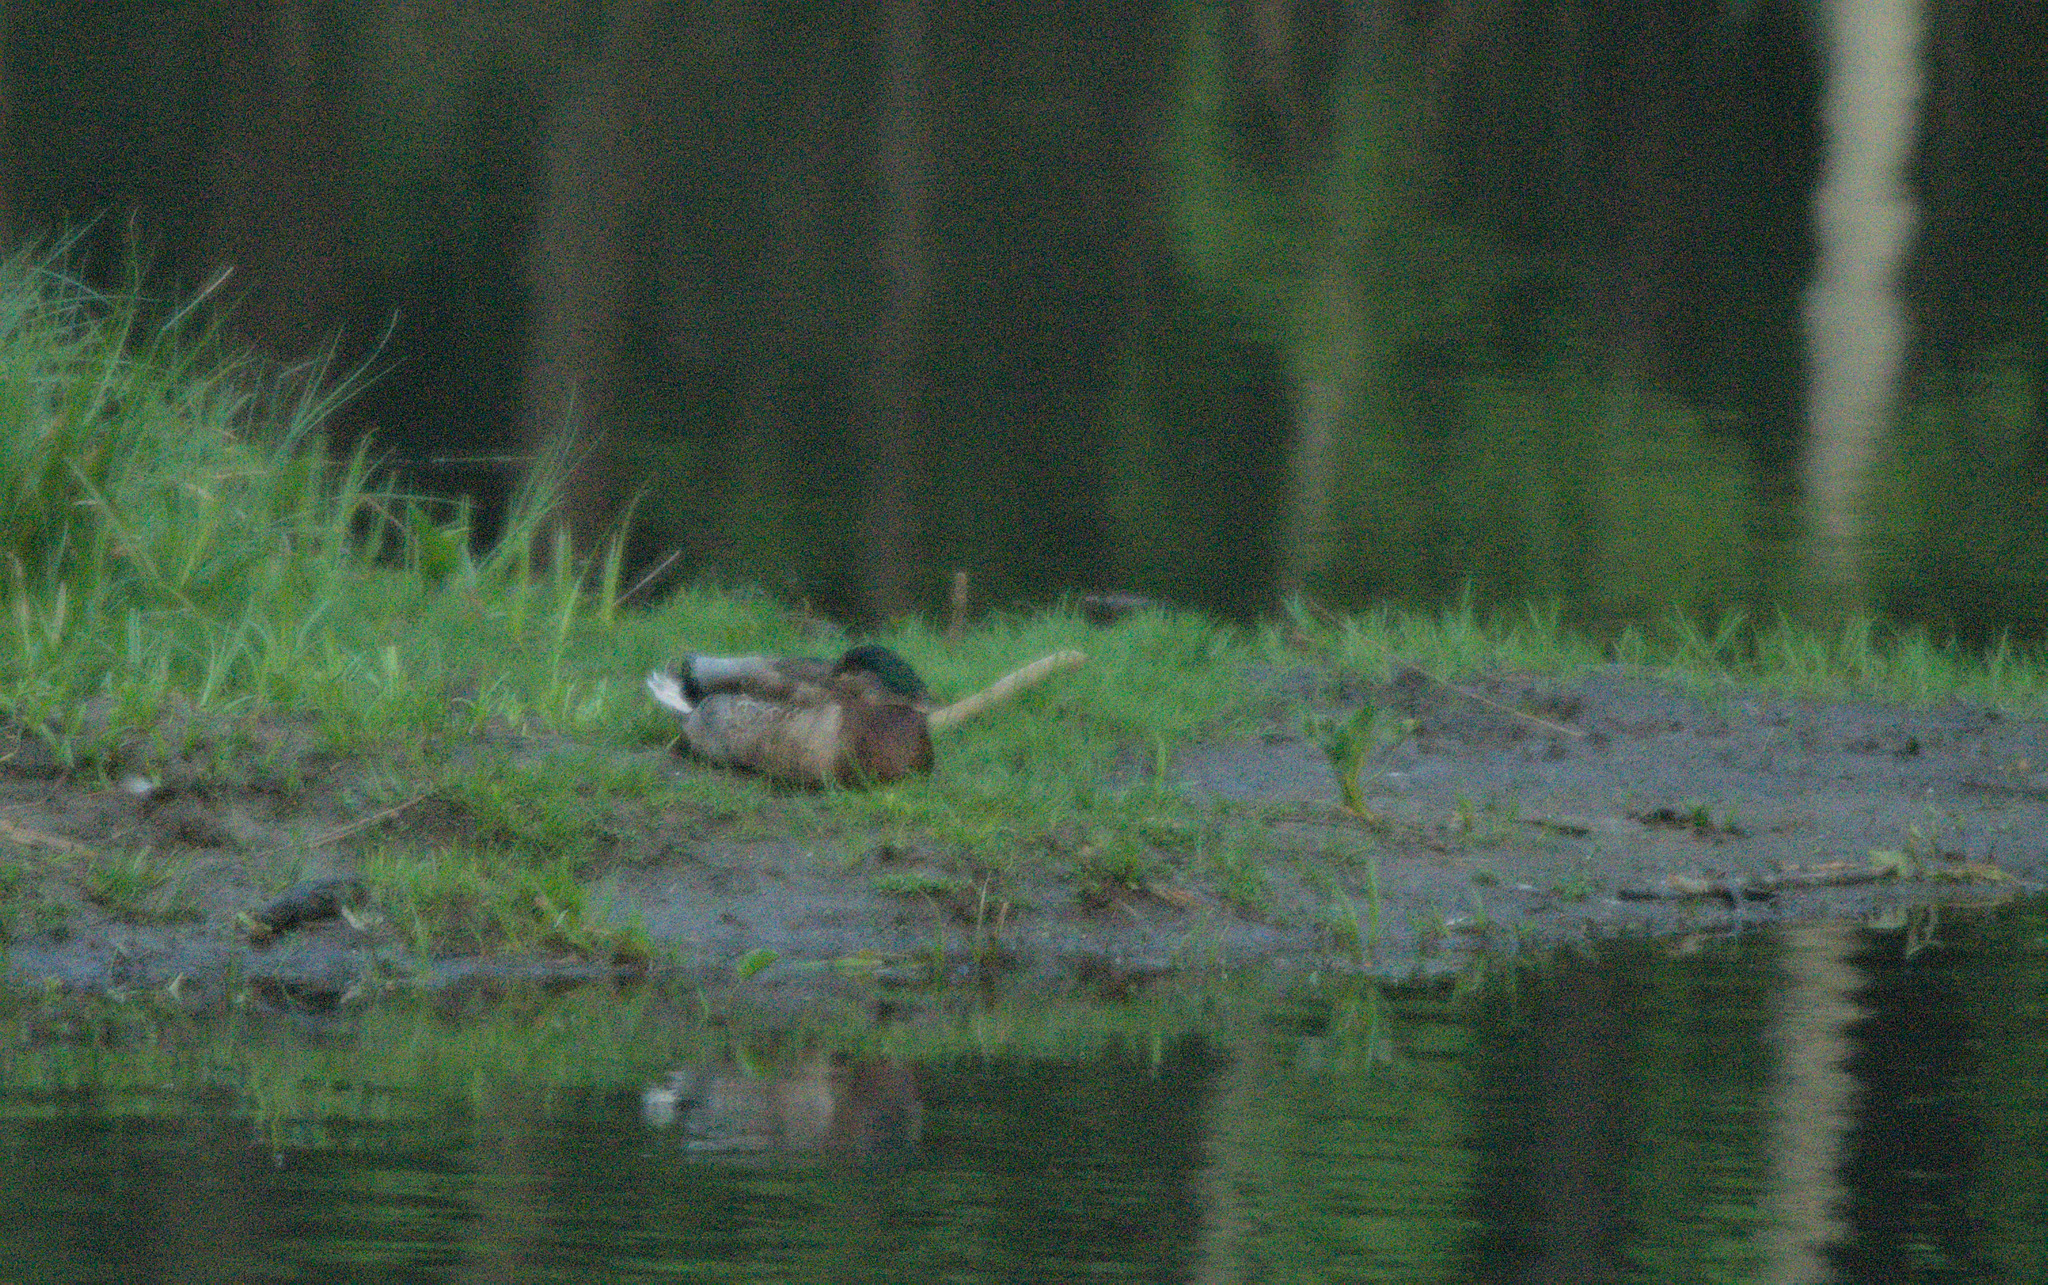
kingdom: Animalia
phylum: Chordata
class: Aves
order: Anseriformes
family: Anatidae
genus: Anas
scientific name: Anas platyrhynchos
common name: Mallard
